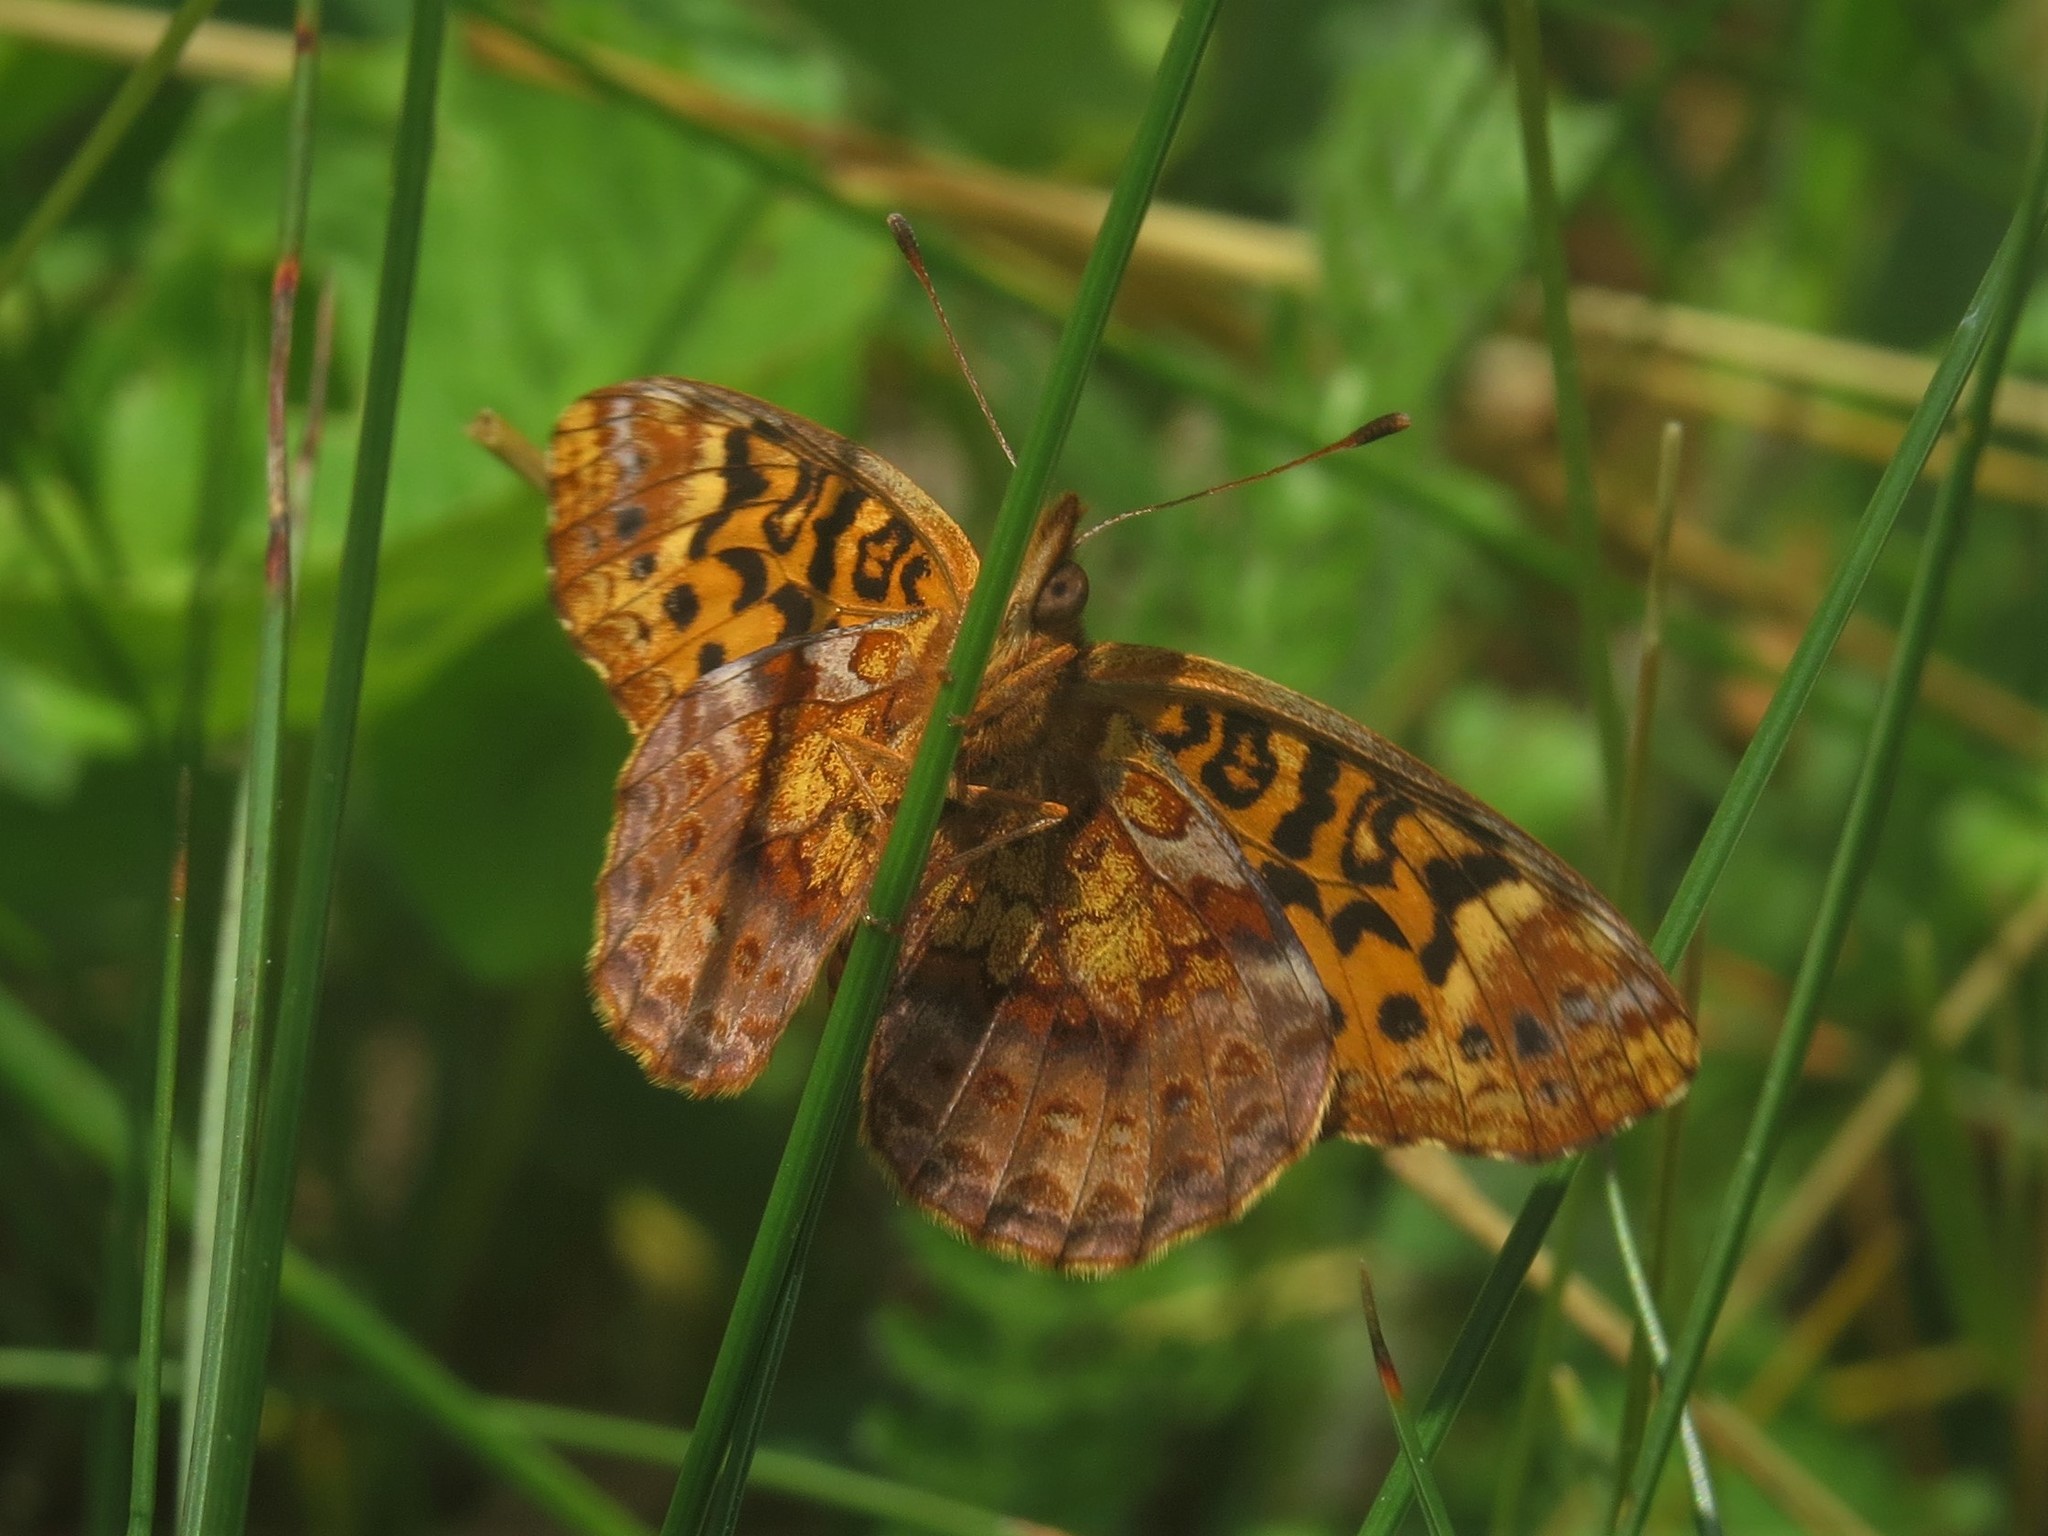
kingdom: Animalia
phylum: Arthropoda
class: Insecta
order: Lepidoptera
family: Nymphalidae
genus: Clossiana
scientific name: Clossiana toddi
